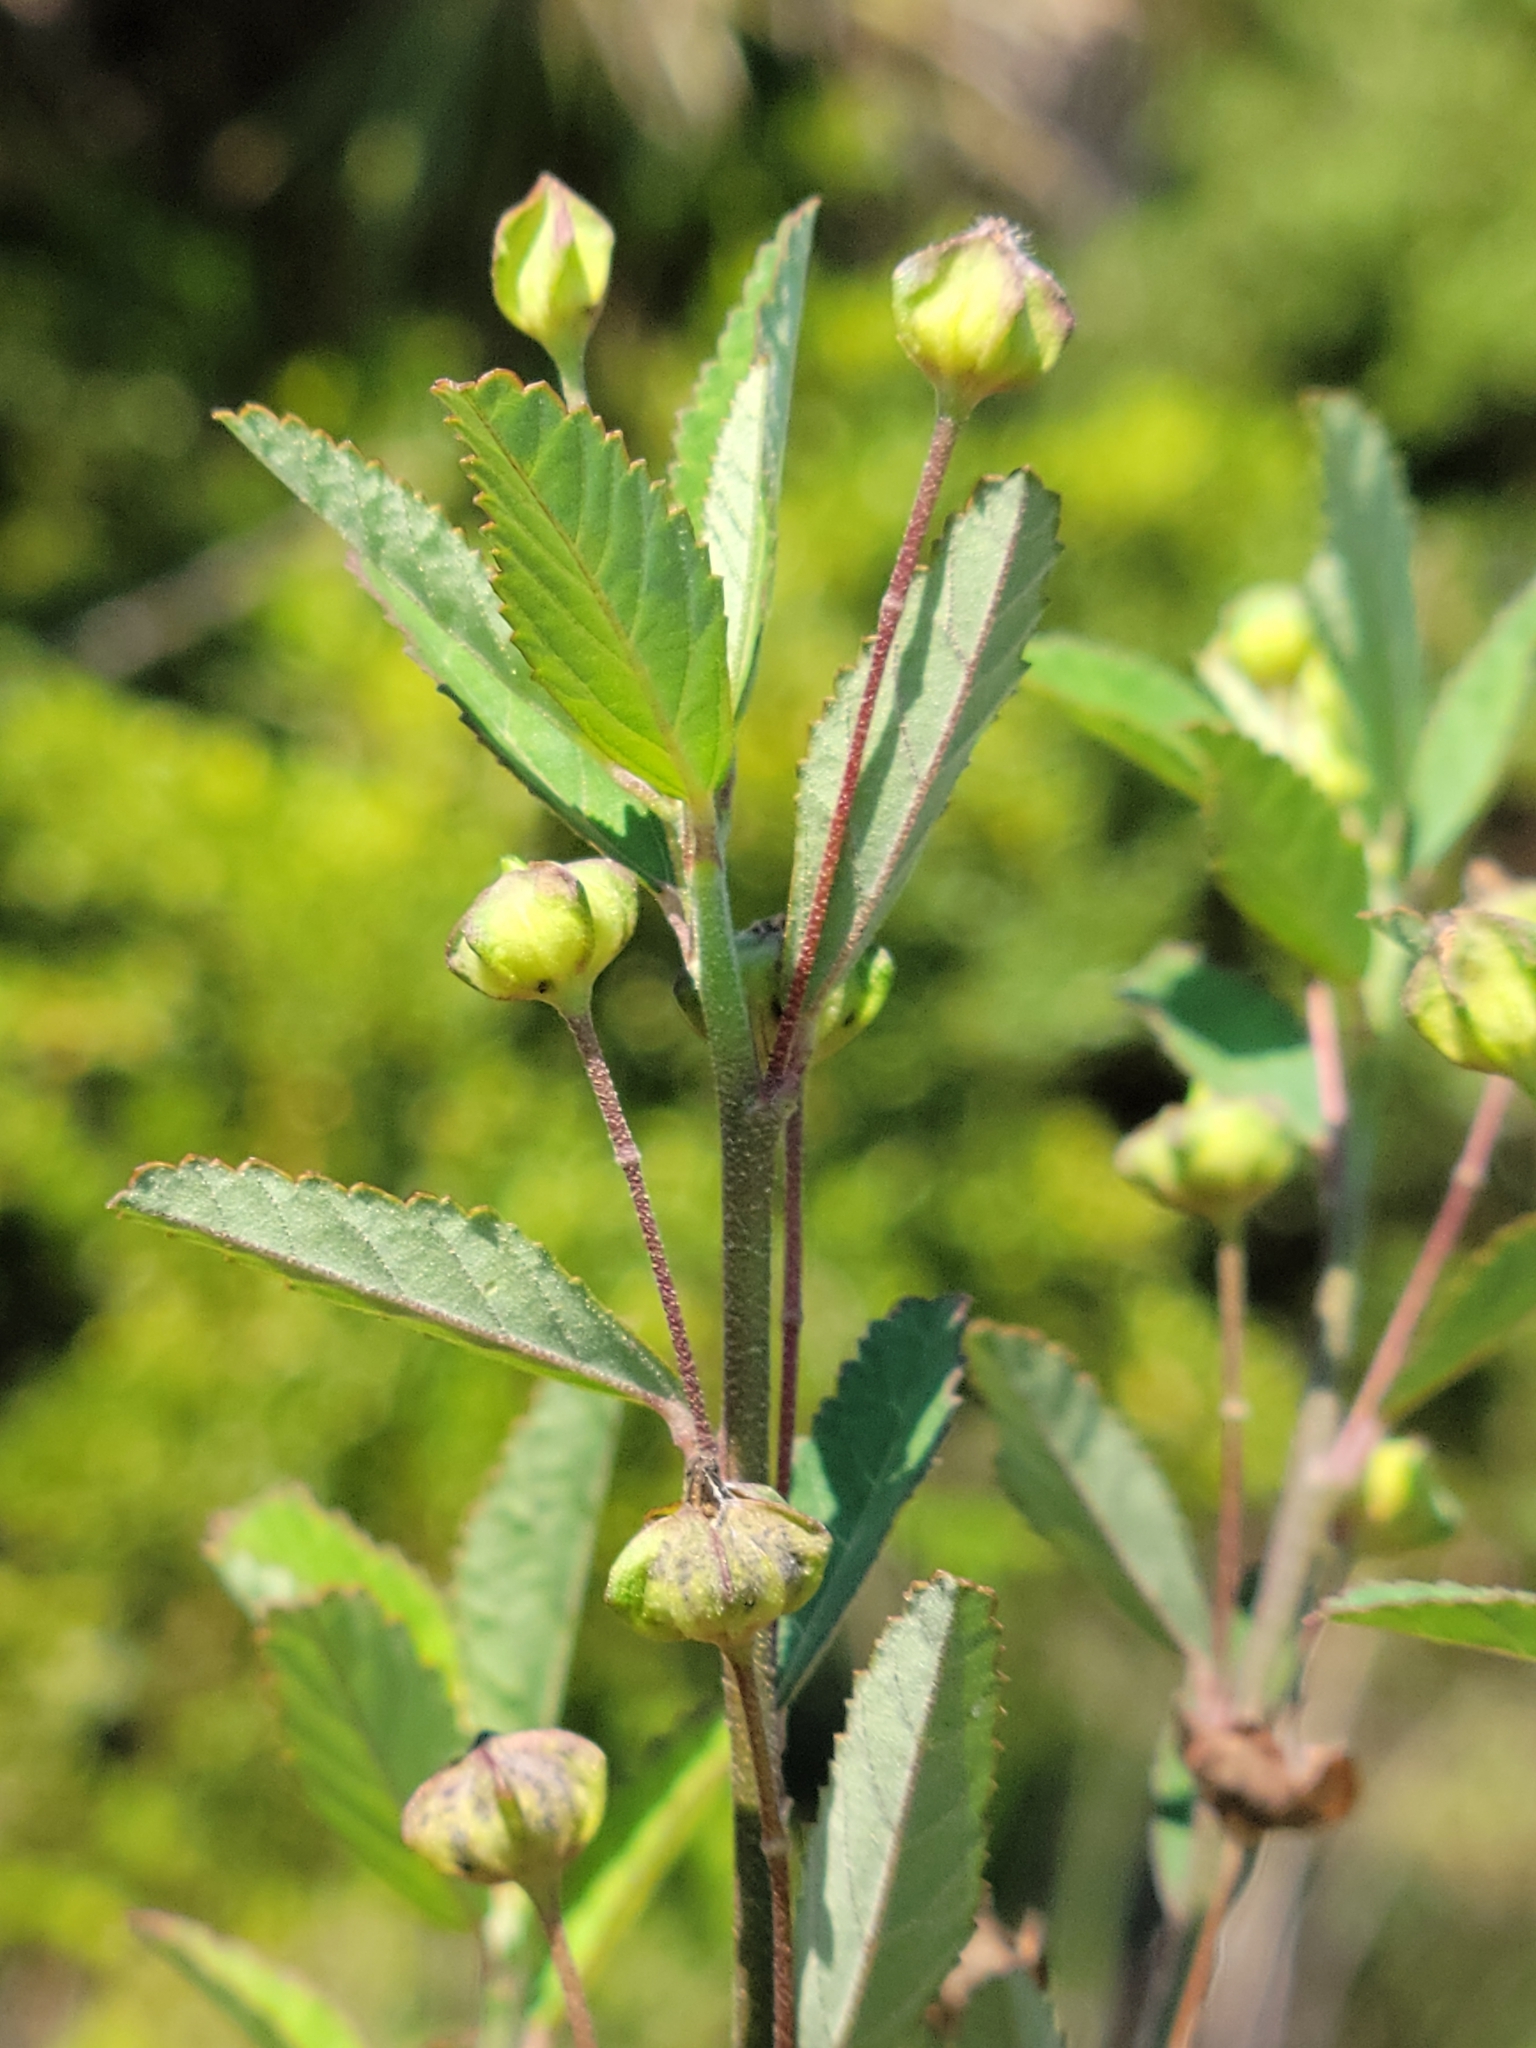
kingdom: Plantae
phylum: Tracheophyta
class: Magnoliopsida
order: Malvales
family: Malvaceae
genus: Sida
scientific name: Sida rhombifolia
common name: Queensland-hemp
